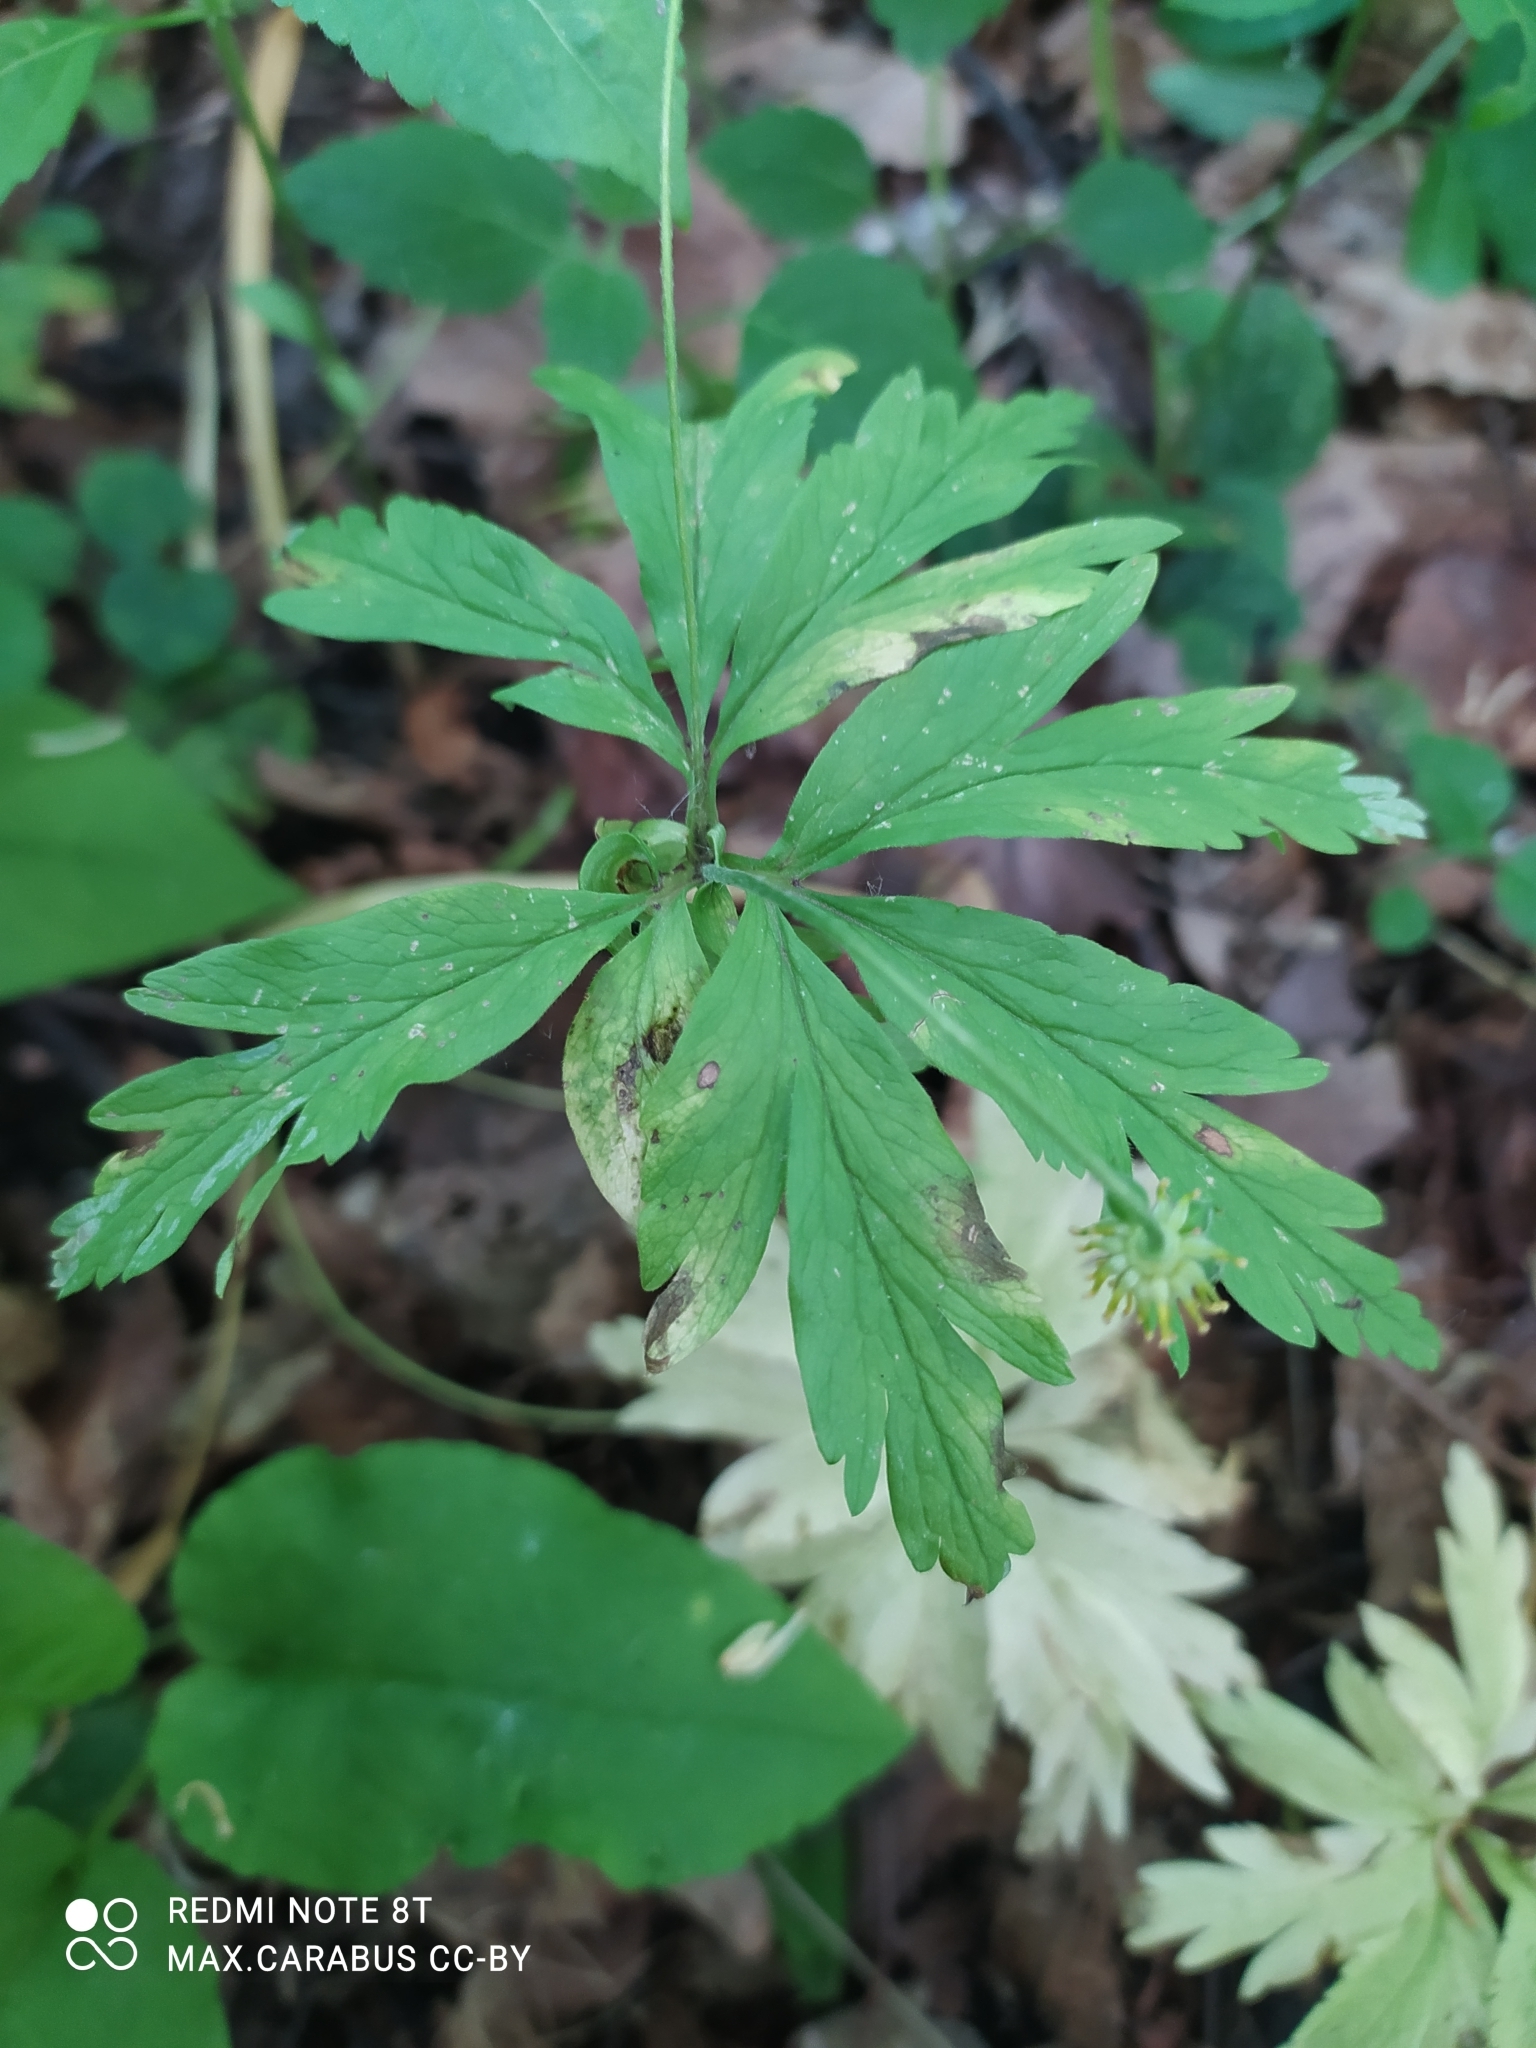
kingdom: Plantae
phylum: Tracheophyta
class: Magnoliopsida
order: Ranunculales
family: Ranunculaceae
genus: Anemone
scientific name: Anemone ranunculoides
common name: Yellow anemone
